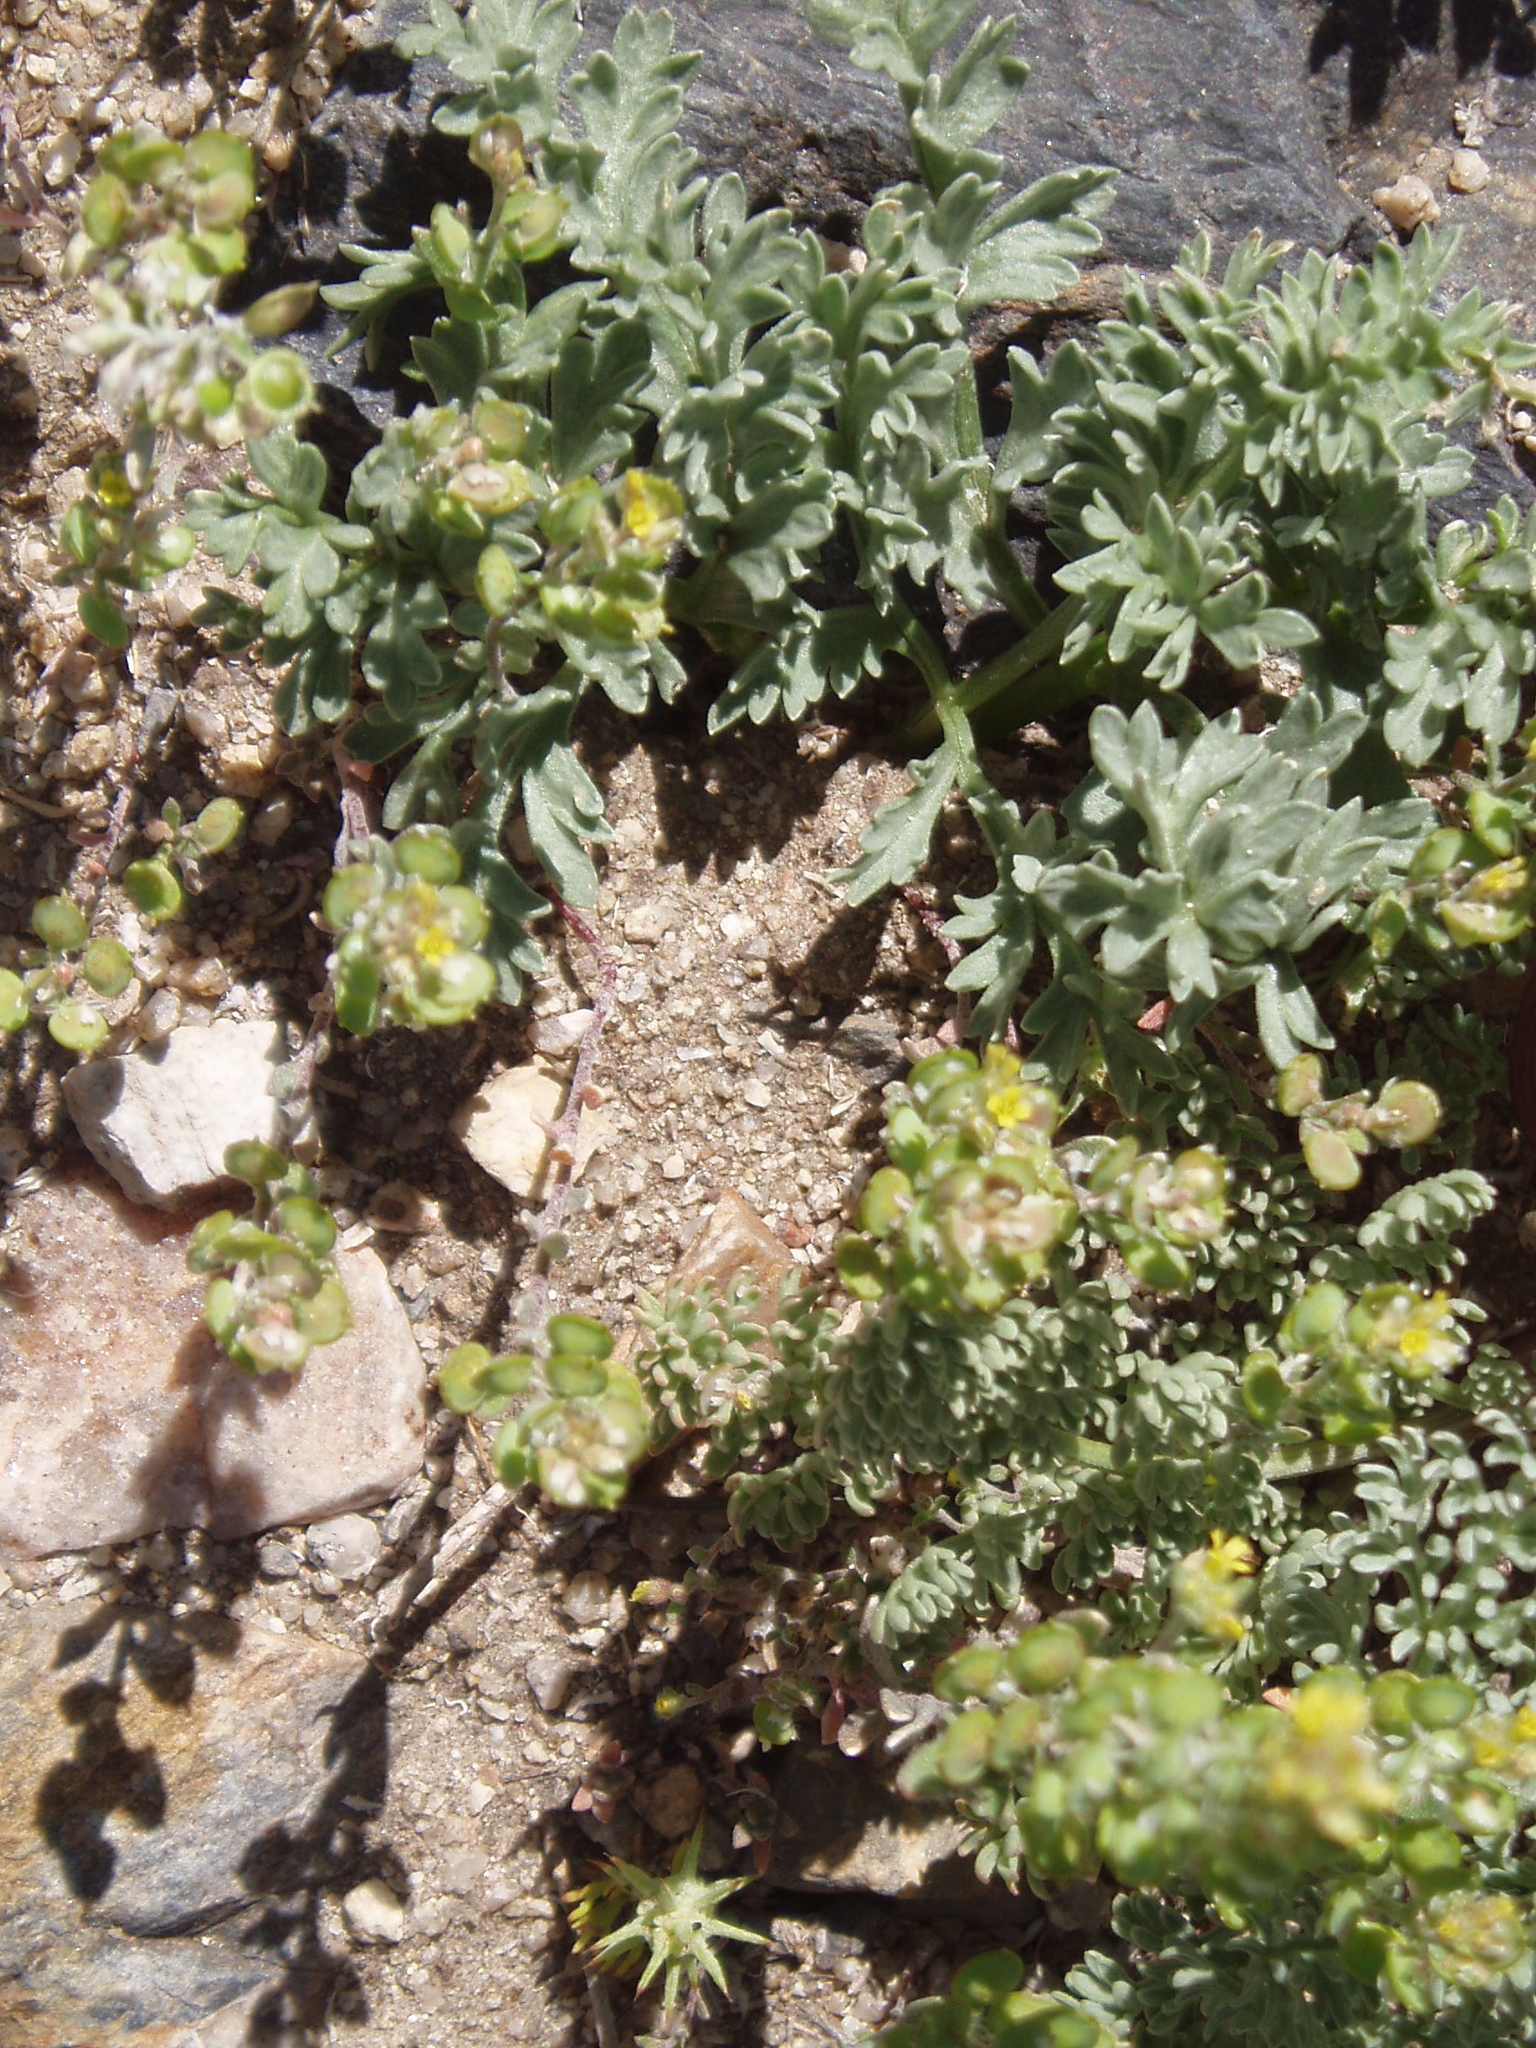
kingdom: Plantae
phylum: Tracheophyta
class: Magnoliopsida
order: Brassicales
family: Brassicaceae
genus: Alyssum
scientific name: Alyssum turkestanicum
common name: Desert alyssum
